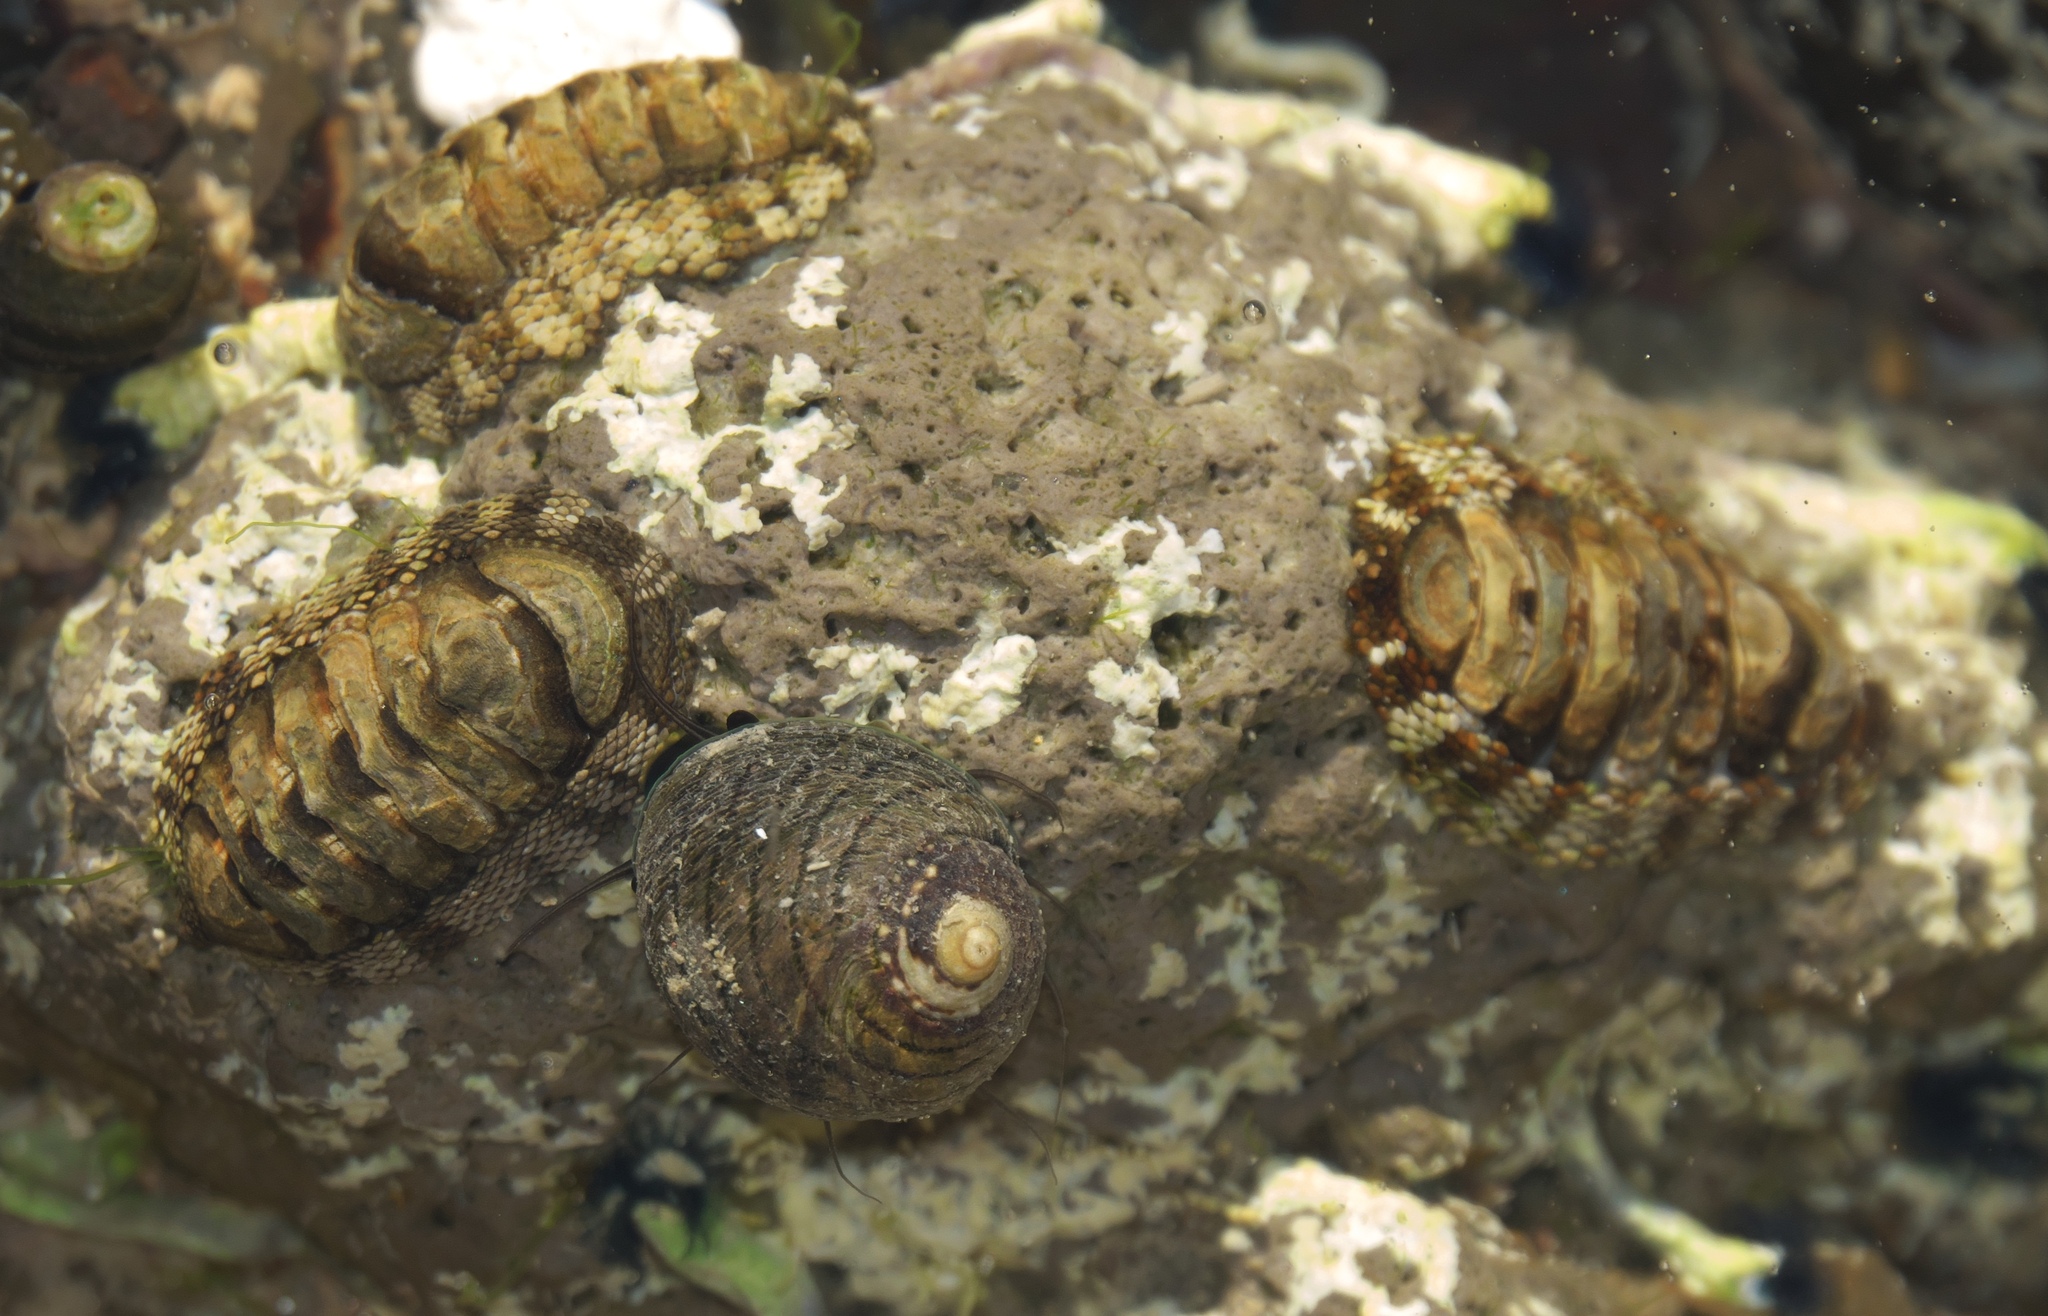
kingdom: Animalia
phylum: Mollusca
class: Polyplacophora
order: Chitonida
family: Chitonidae
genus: Sypharochiton
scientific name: Sypharochiton pelliserpentis
